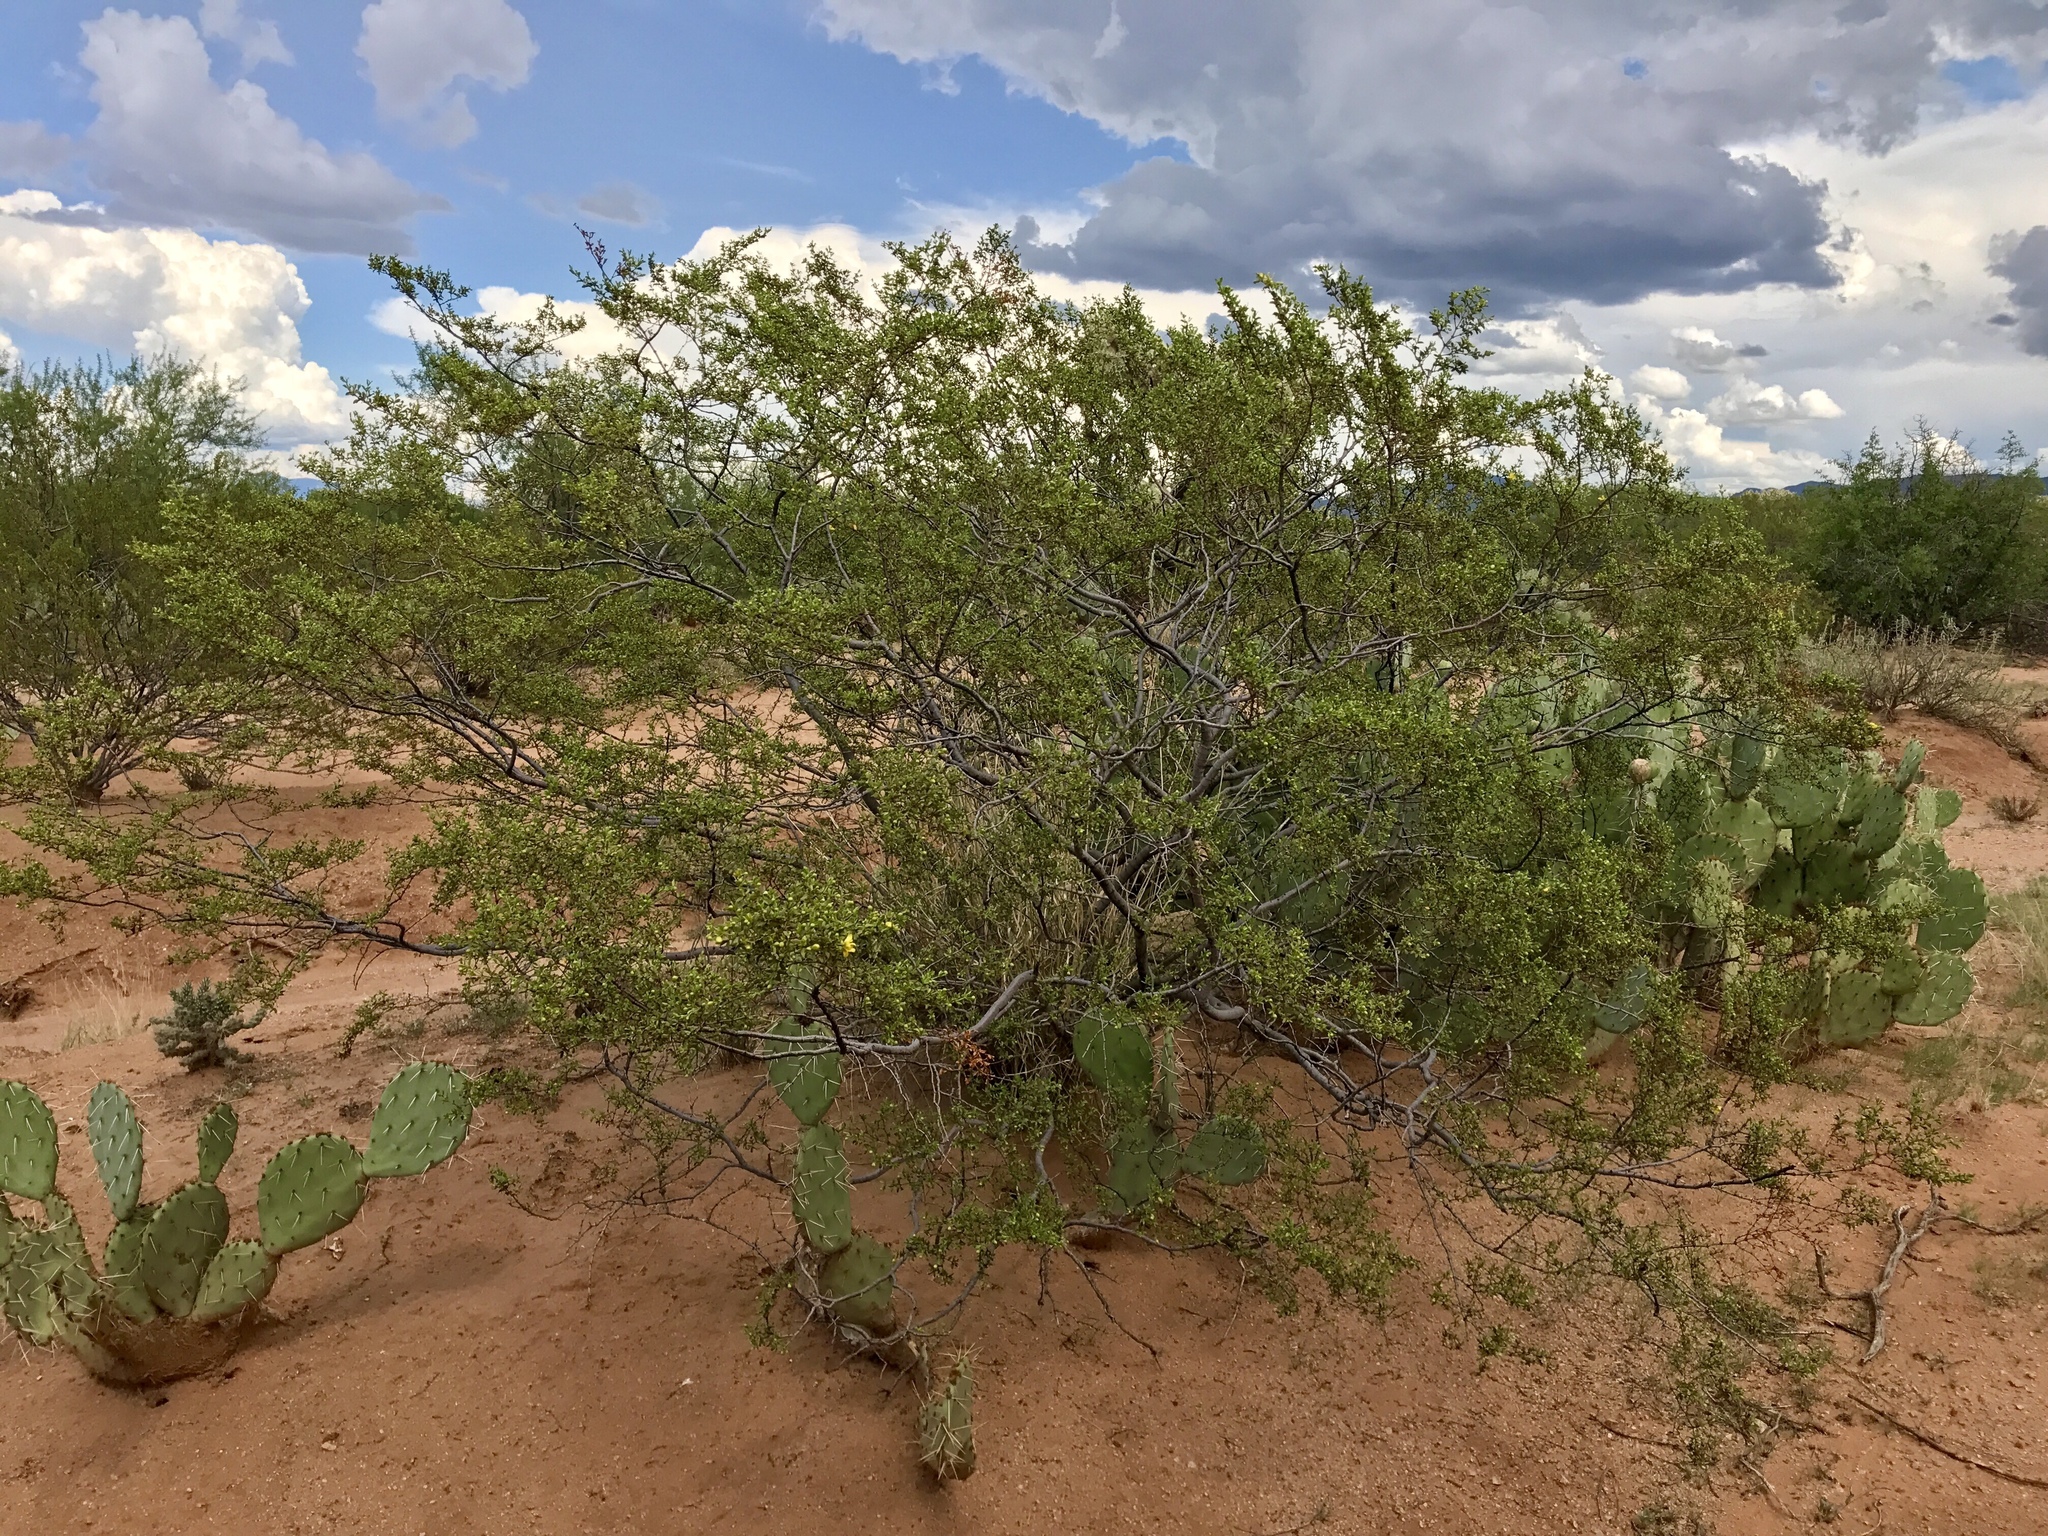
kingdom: Plantae
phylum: Tracheophyta
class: Magnoliopsida
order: Zygophyllales
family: Zygophyllaceae
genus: Larrea
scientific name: Larrea tridentata
